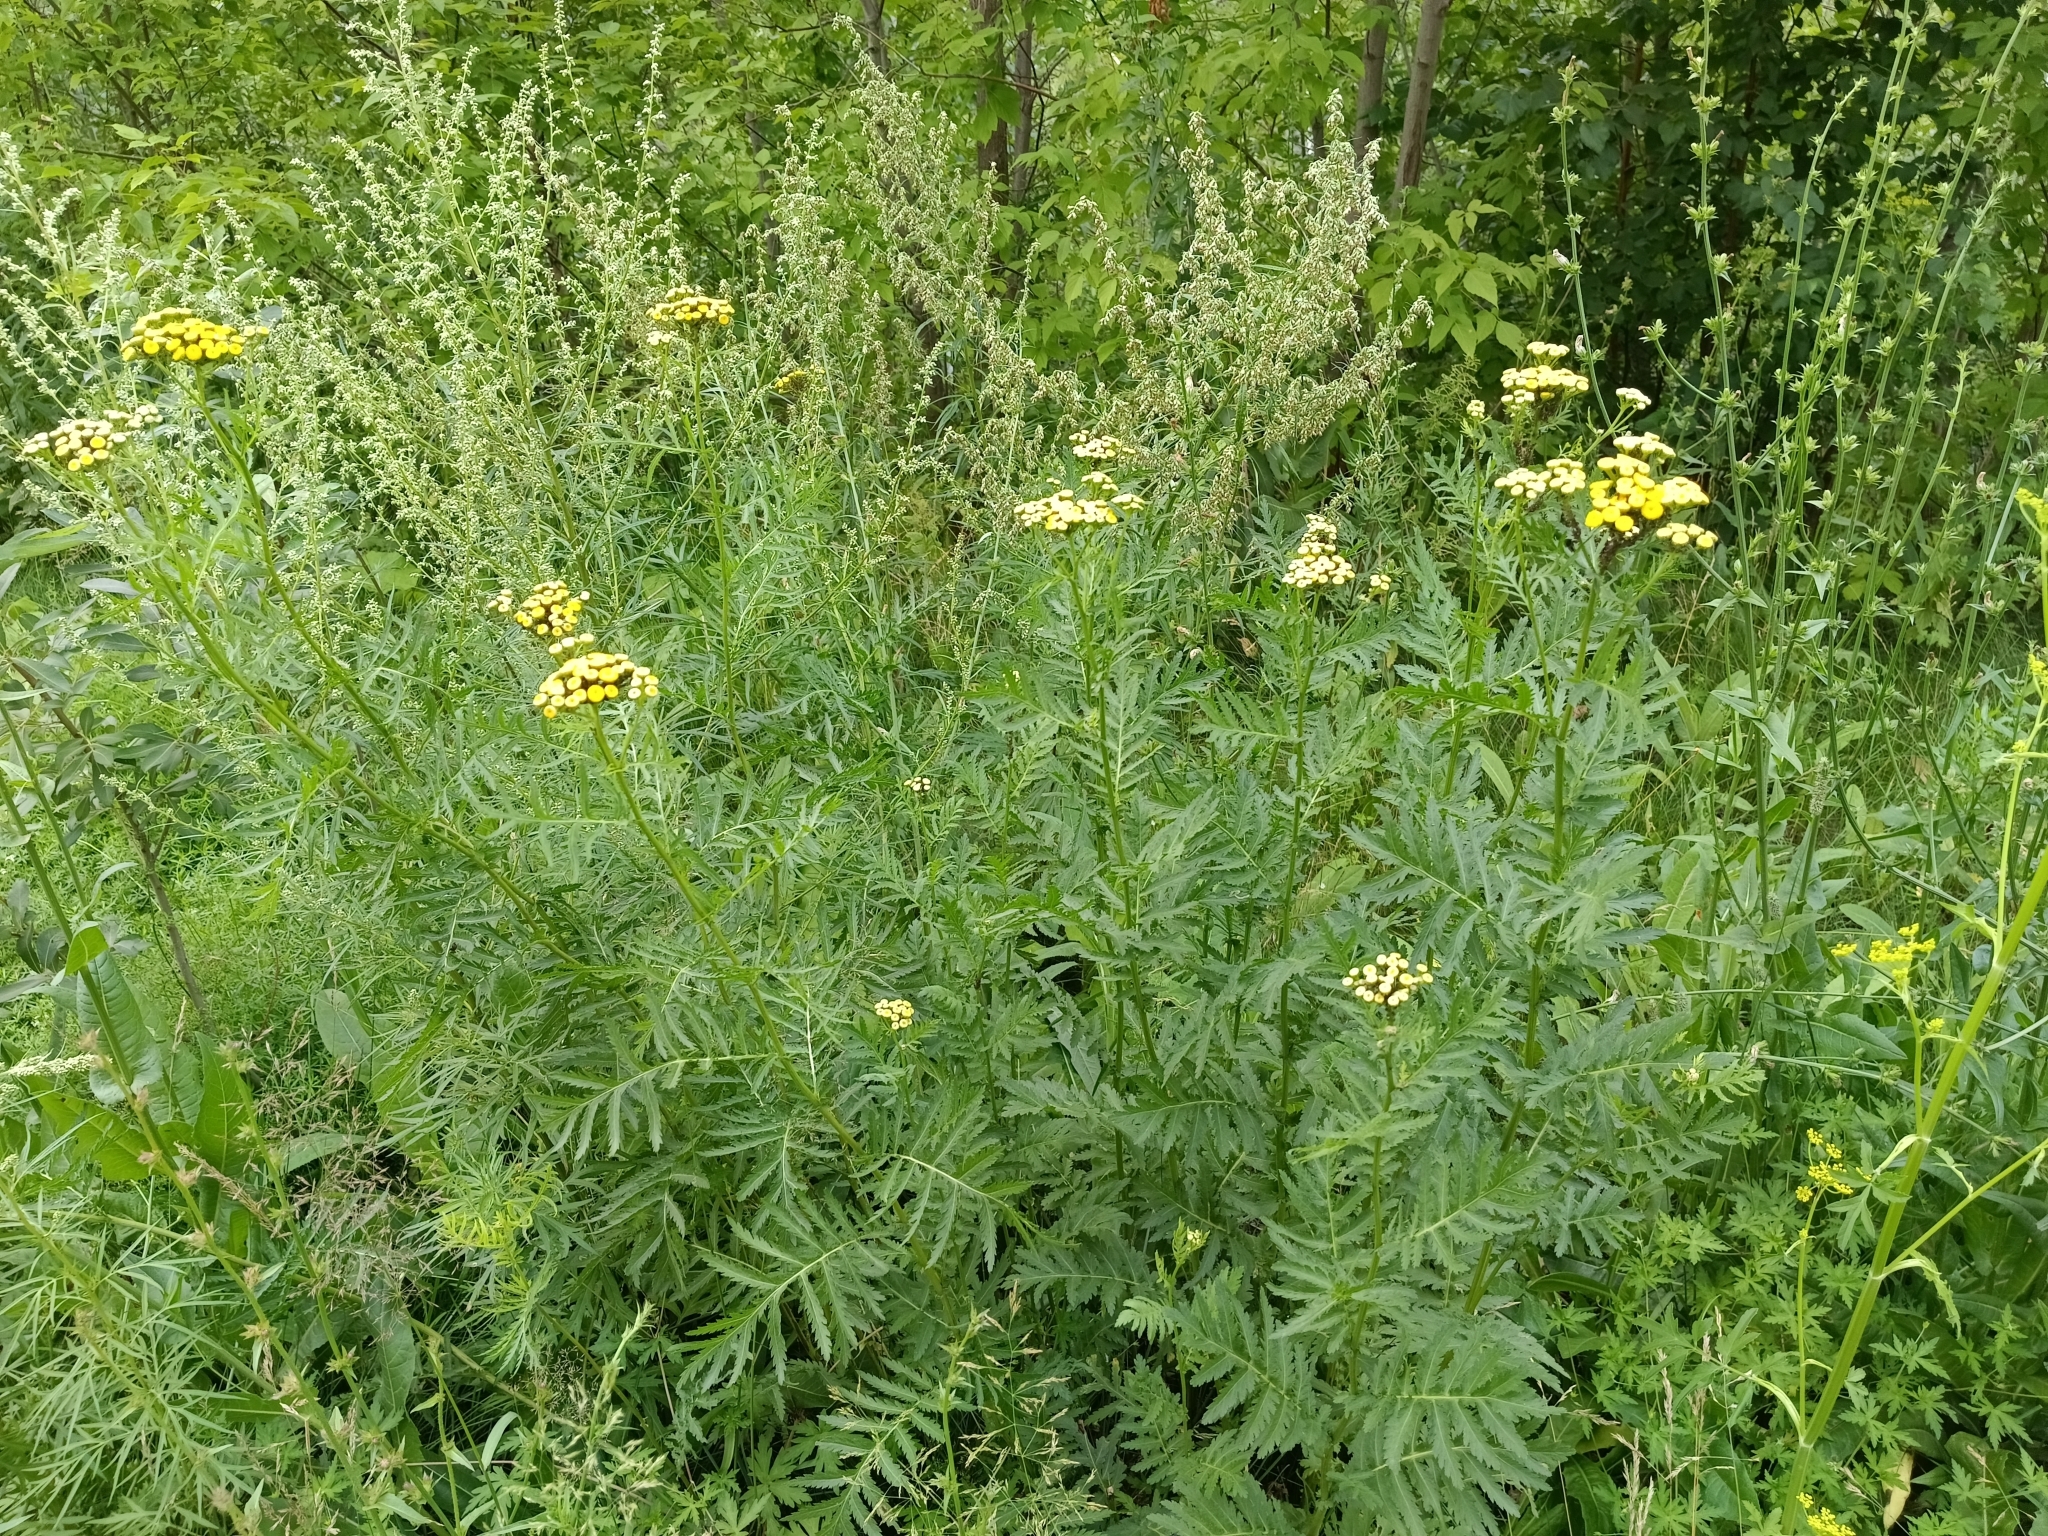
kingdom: Plantae
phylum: Tracheophyta
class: Magnoliopsida
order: Asterales
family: Asteraceae
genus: Tanacetum
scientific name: Tanacetum vulgare
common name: Common tansy
